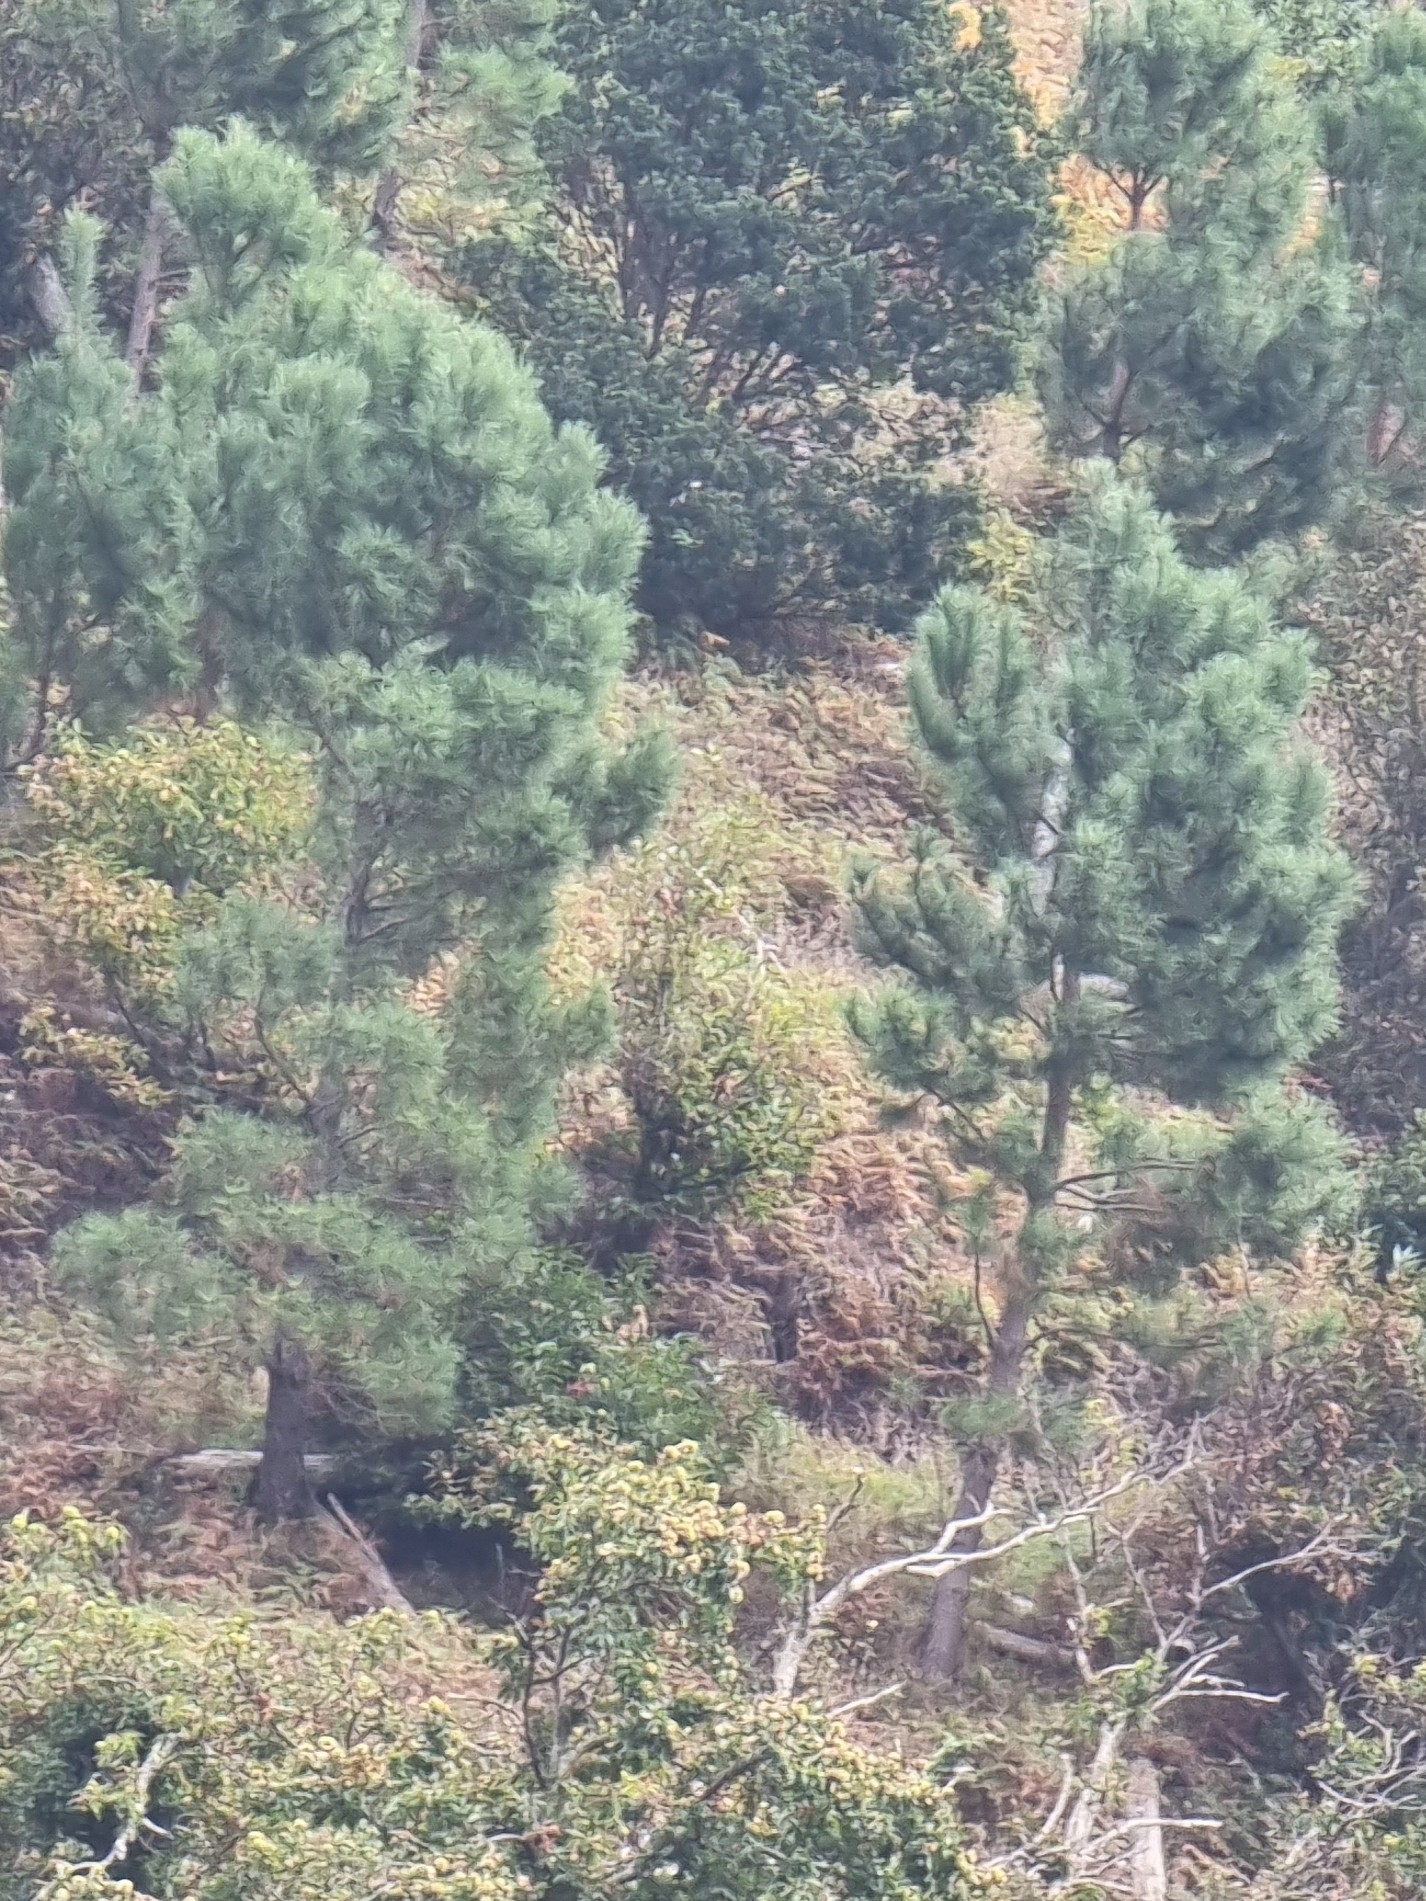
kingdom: Plantae
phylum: Tracheophyta
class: Pinopsida
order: Pinales
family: Pinaceae
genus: Pinus
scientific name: Pinus pinaster
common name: Maritime pine
